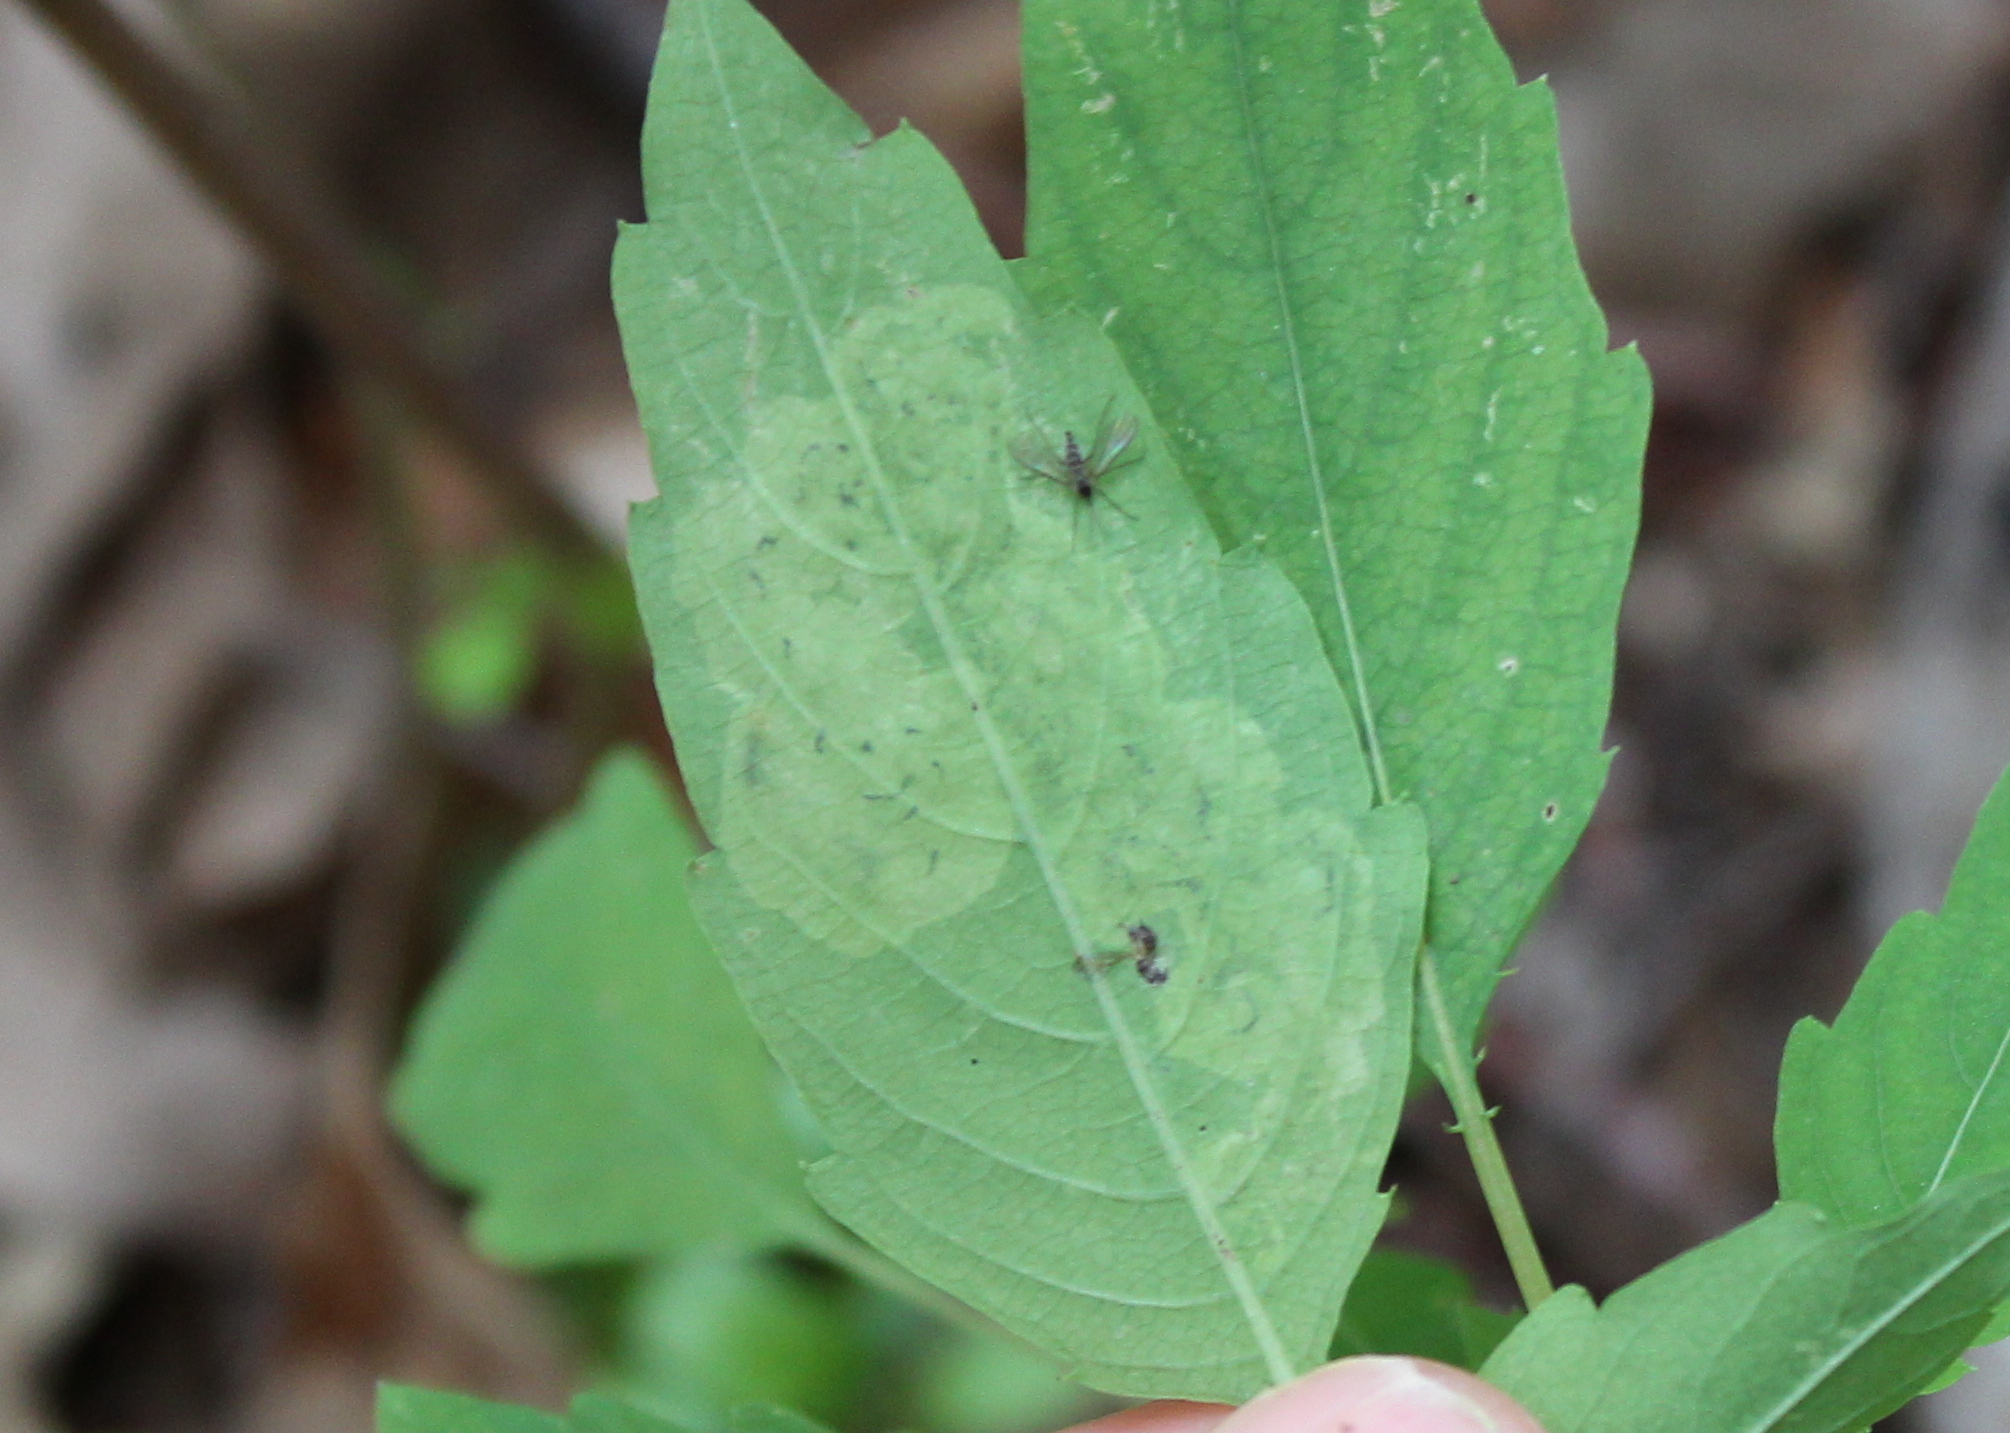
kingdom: Animalia
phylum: Arthropoda
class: Insecta
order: Diptera
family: Agromyzidae
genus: Phytoliriomyza
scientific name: Phytoliriomyza melampyga
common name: Jewelweed leaf-miner fly
